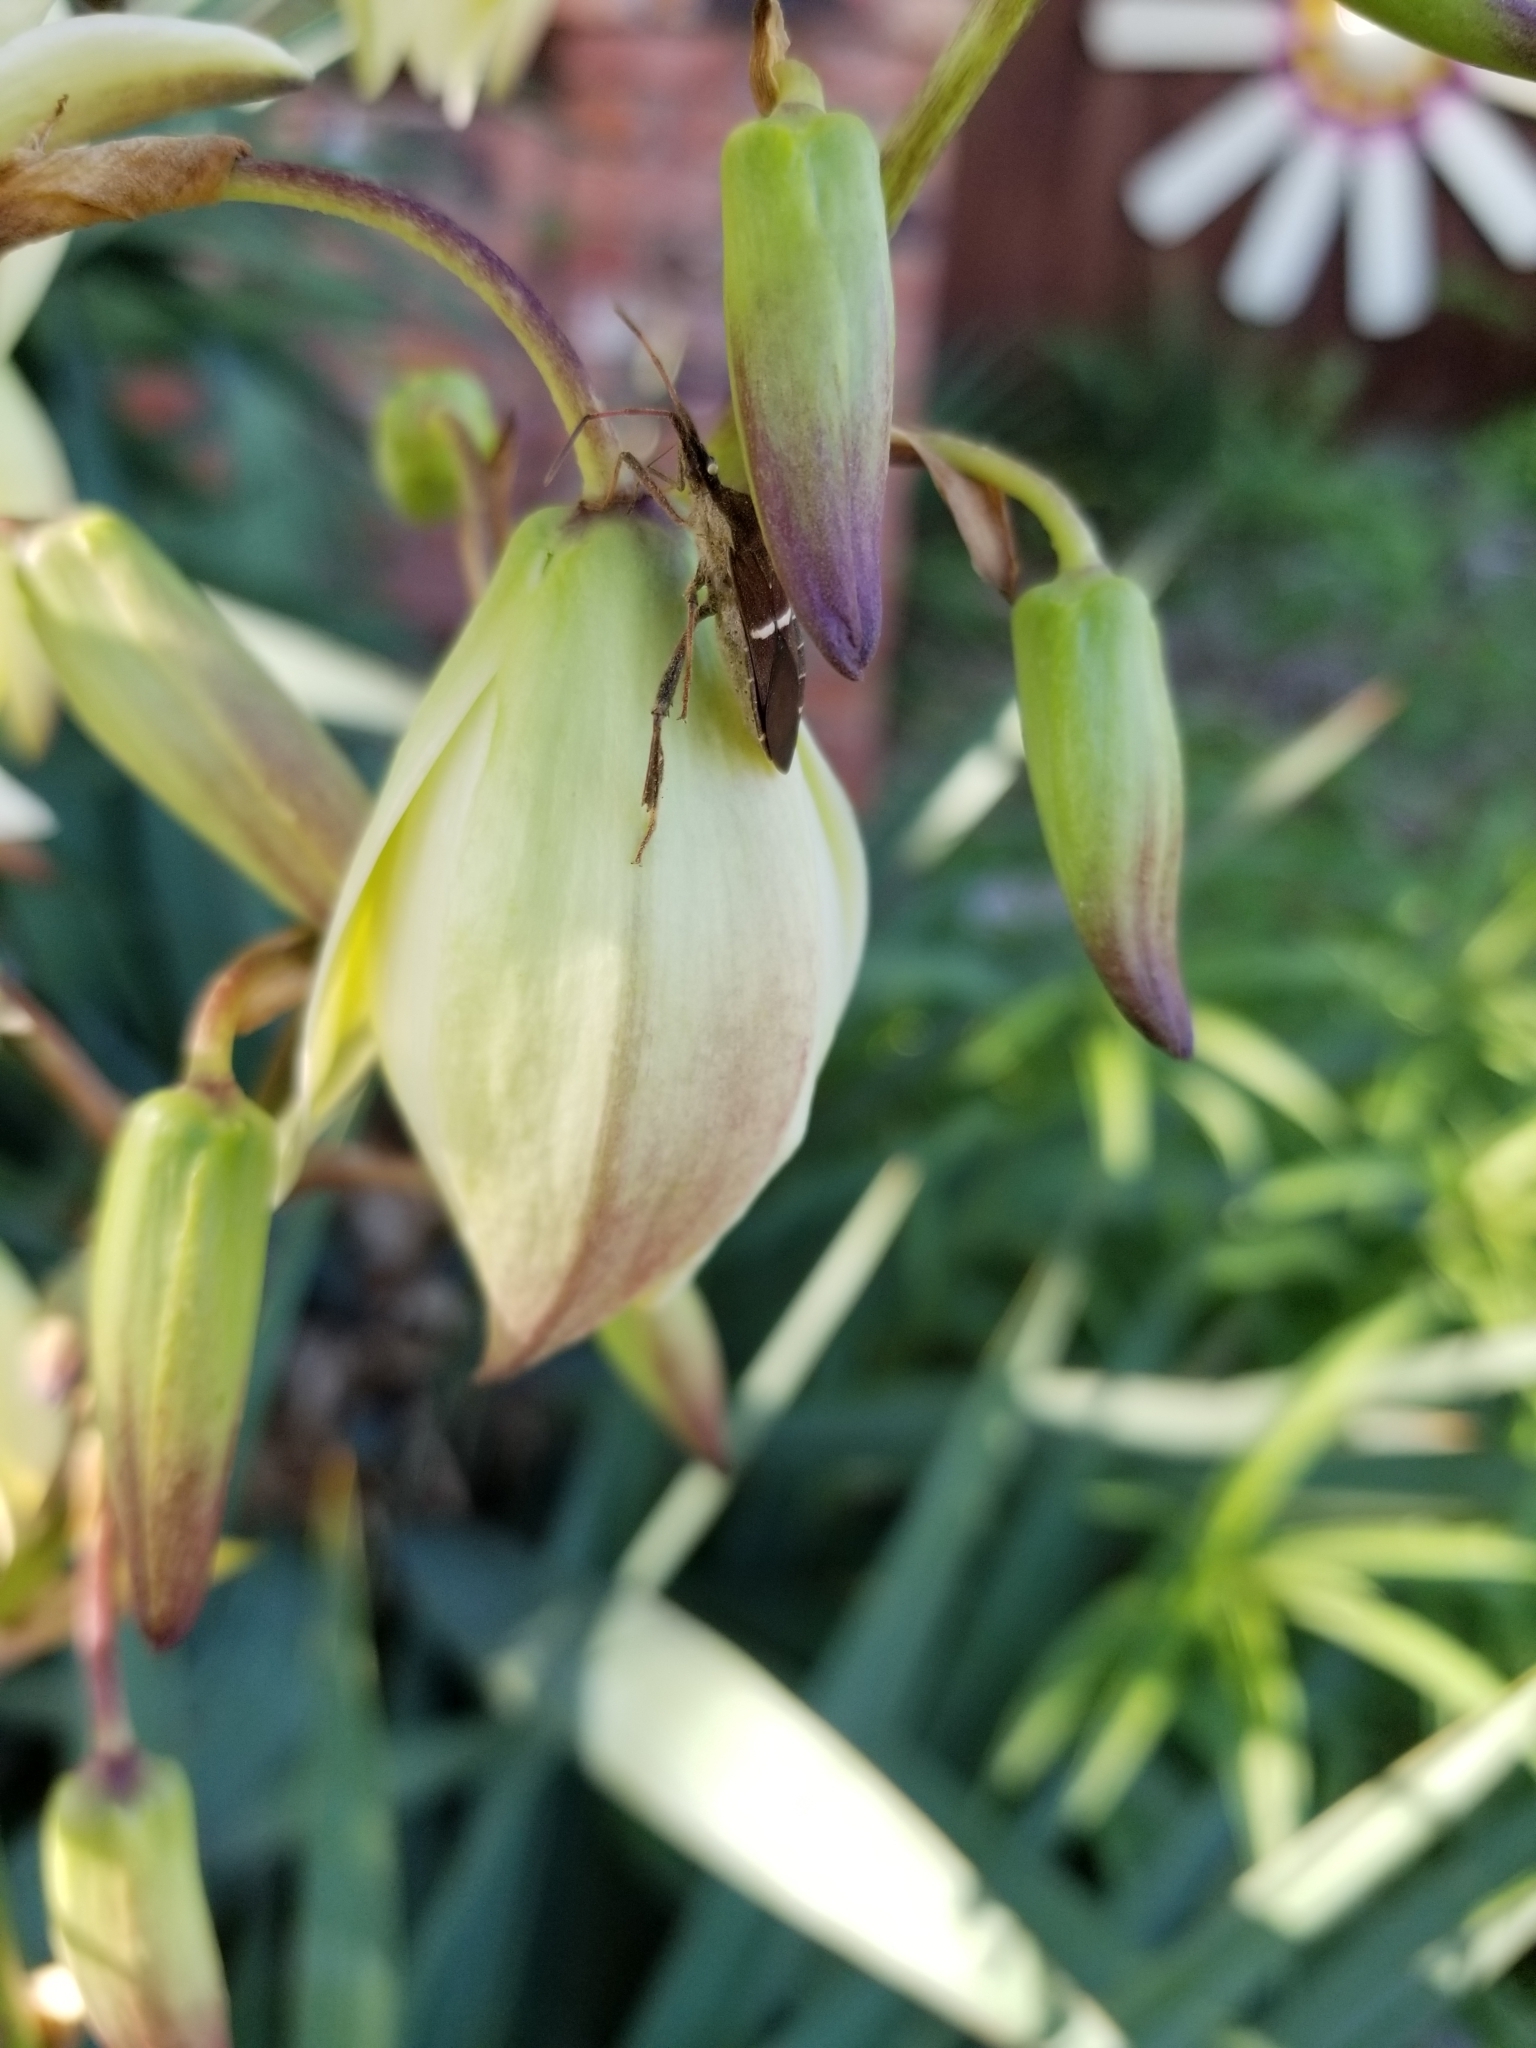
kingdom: Animalia
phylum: Arthropoda
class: Insecta
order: Hemiptera
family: Coreidae
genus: Leptoglossus
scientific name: Leptoglossus phyllopus
